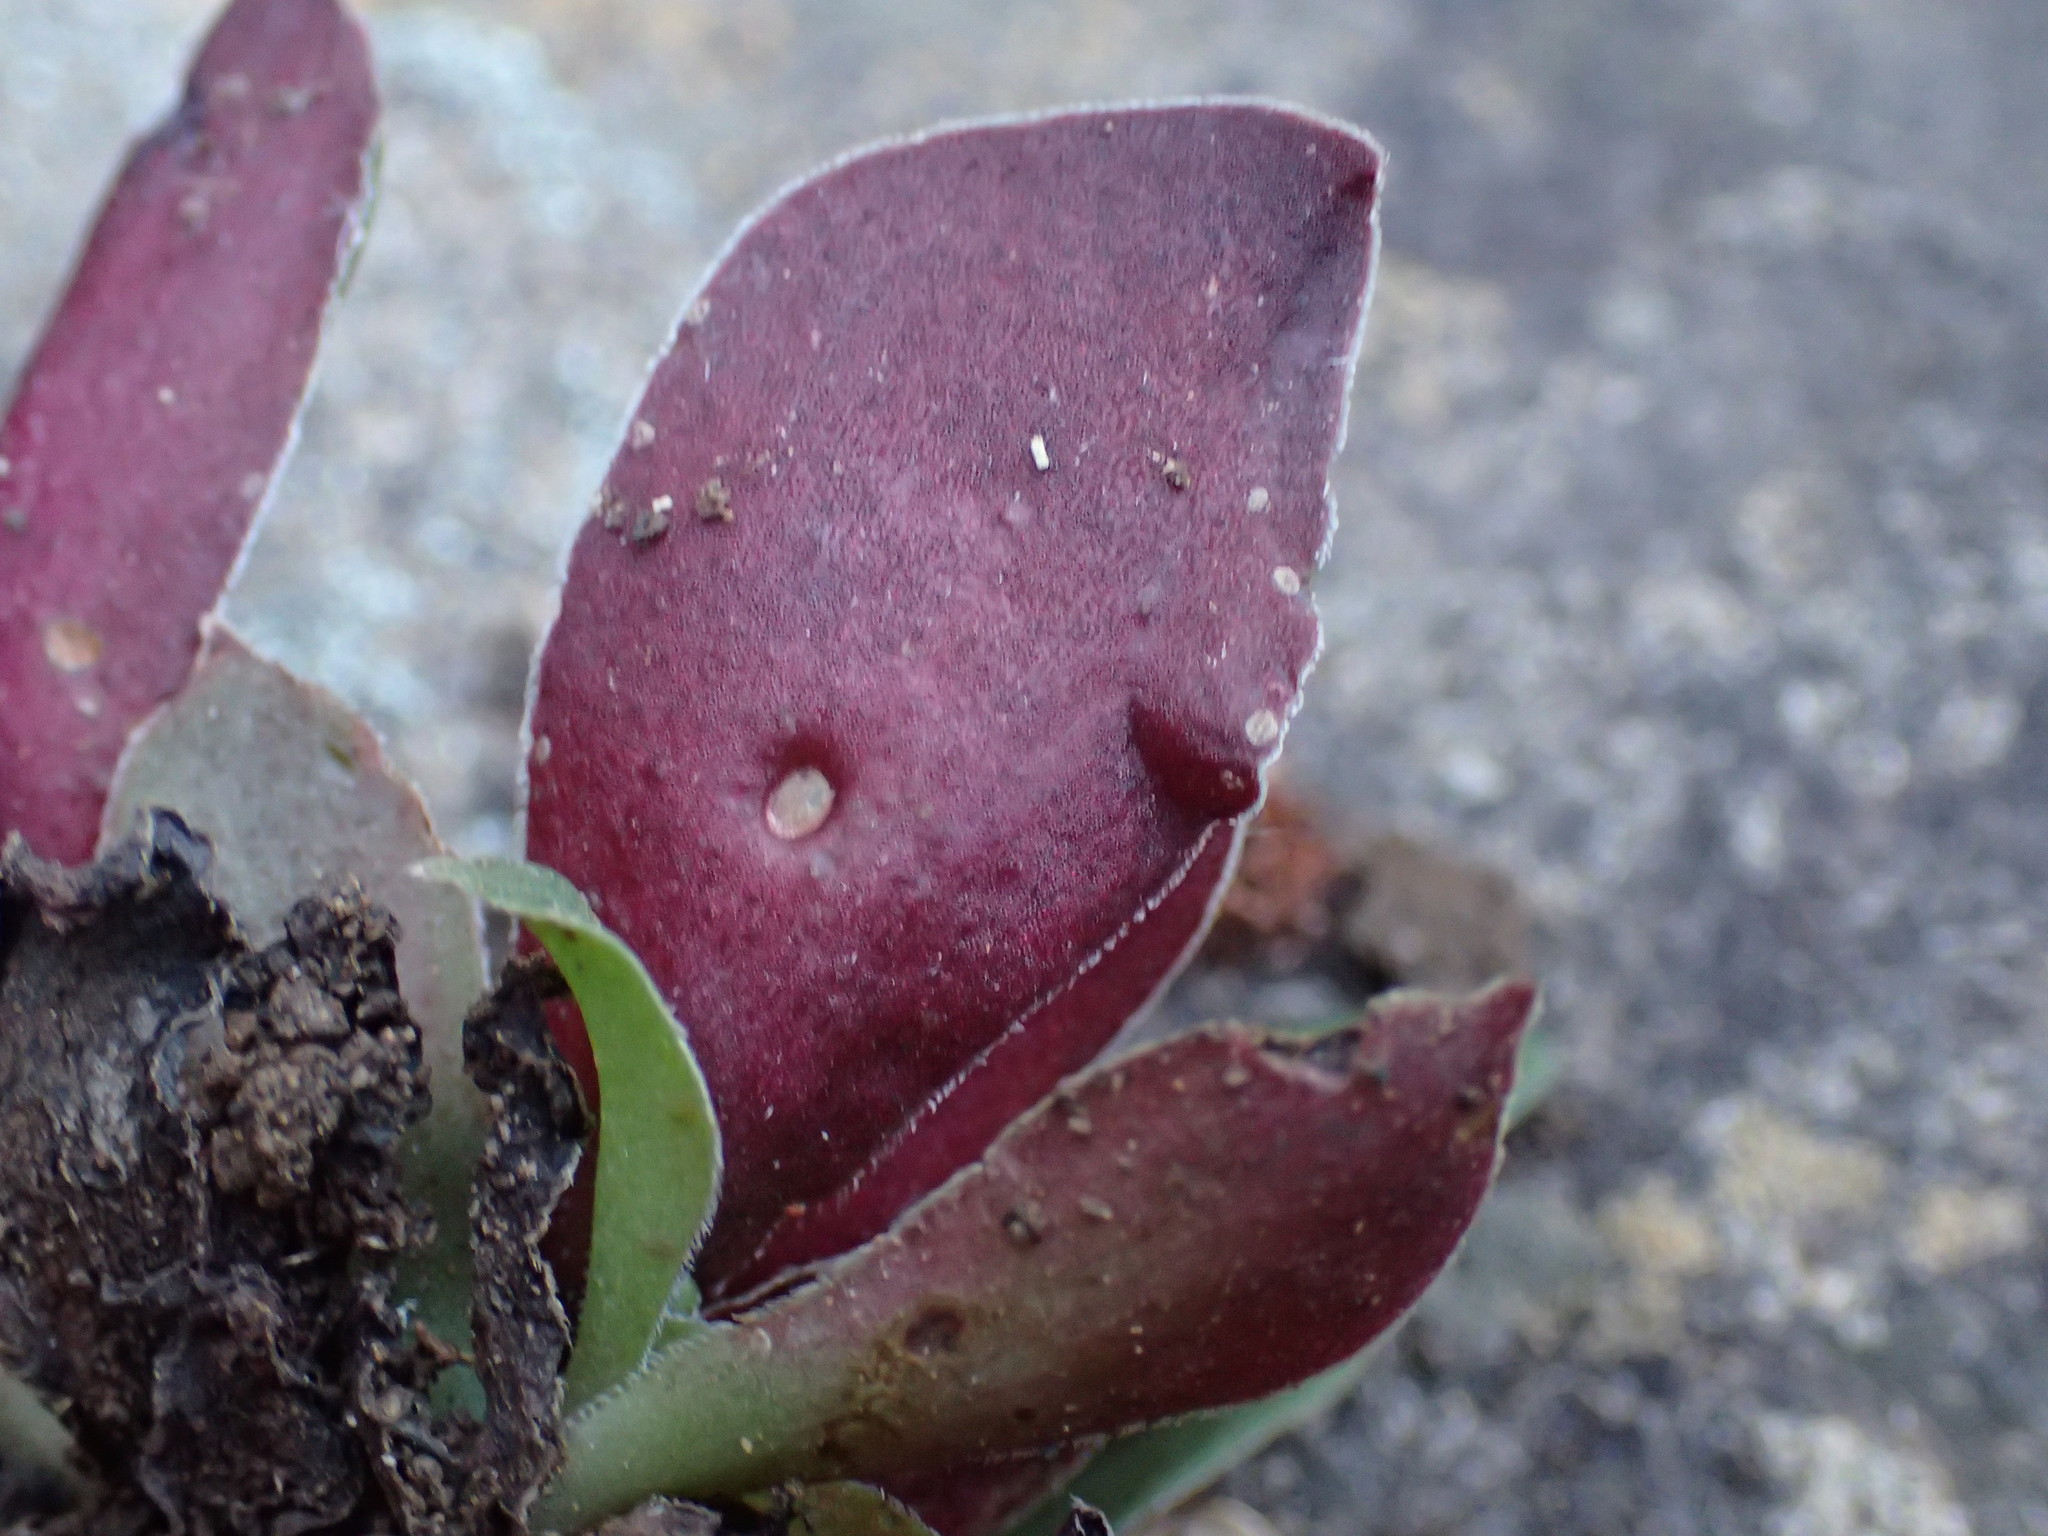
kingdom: Plantae
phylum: Tracheophyta
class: Magnoliopsida
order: Saxifragales
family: Crassulaceae
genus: Crassula
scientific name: Crassula setulosa
